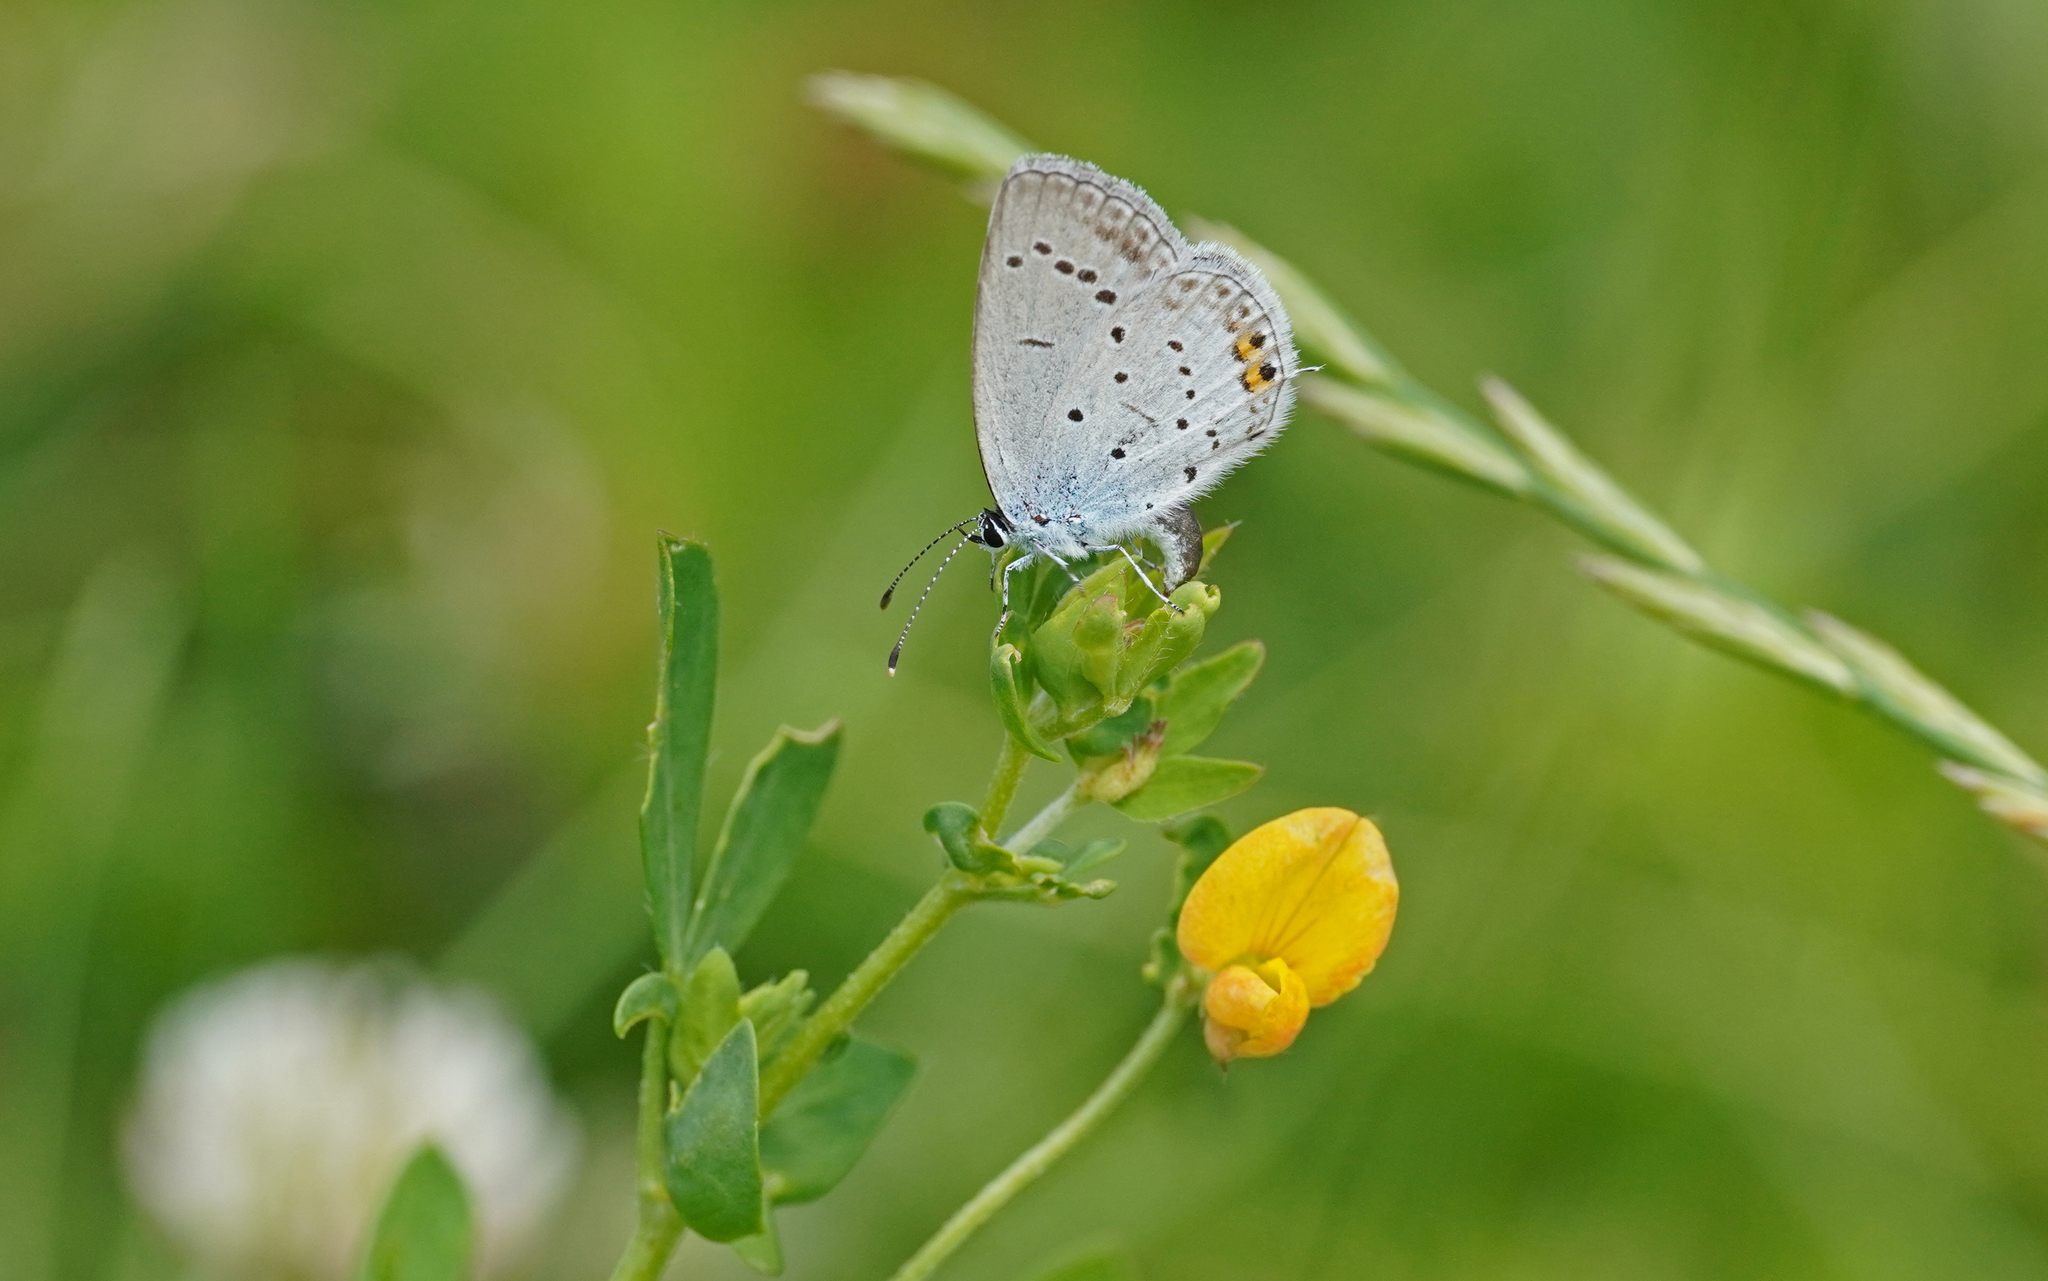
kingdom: Animalia
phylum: Arthropoda
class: Insecta
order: Lepidoptera
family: Lycaenidae
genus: Elkalyce
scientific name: Elkalyce argiades
